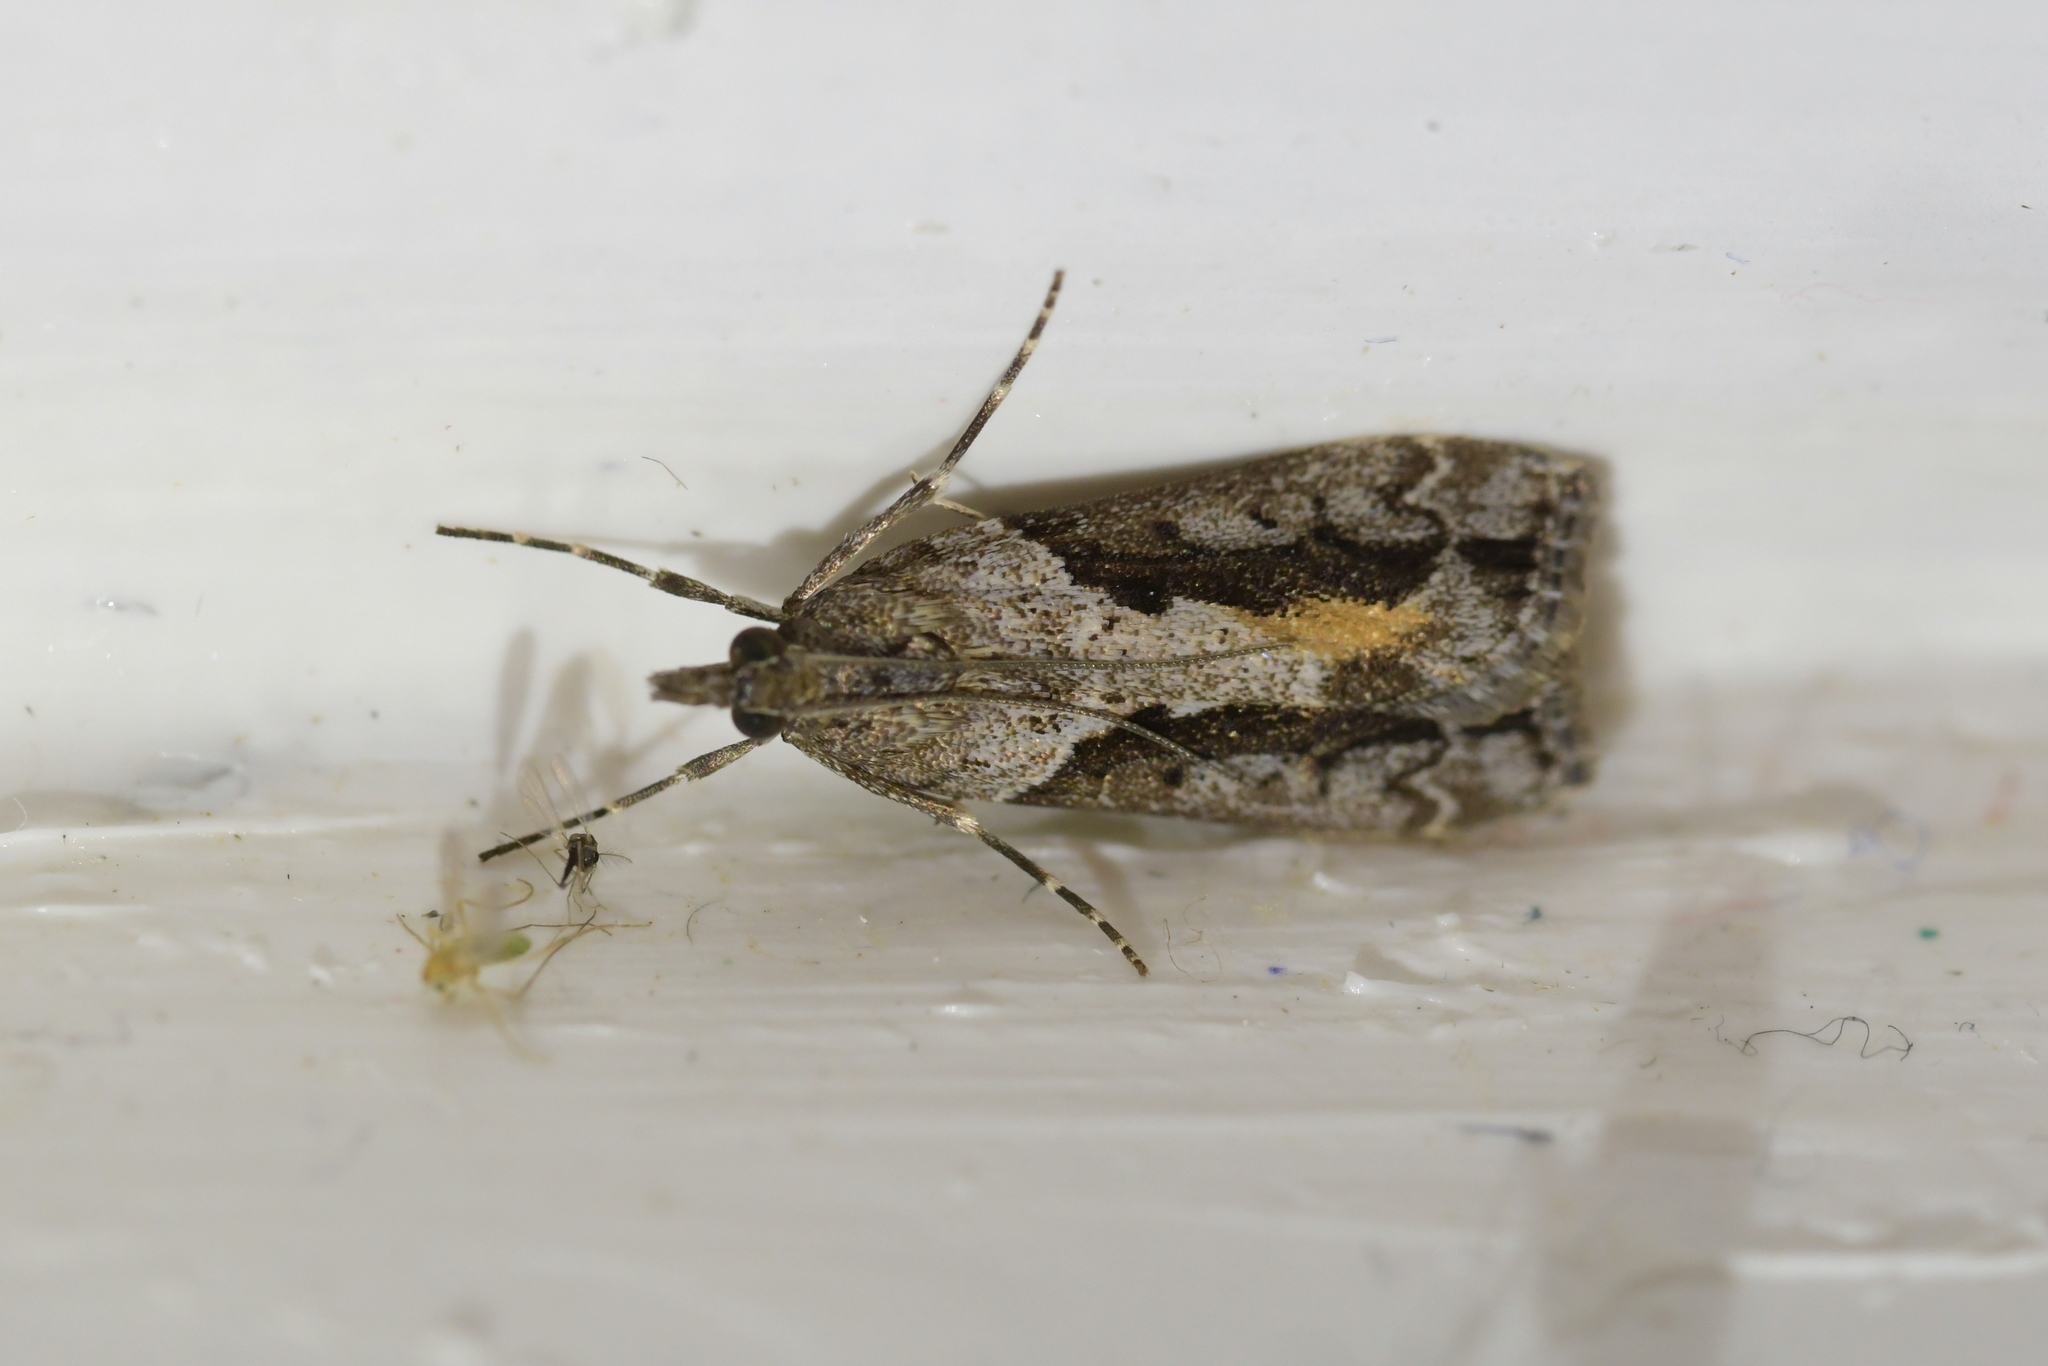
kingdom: Animalia
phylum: Arthropoda
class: Insecta
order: Lepidoptera
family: Crambidae
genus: Eudonia
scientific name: Eudonia submarginalis
